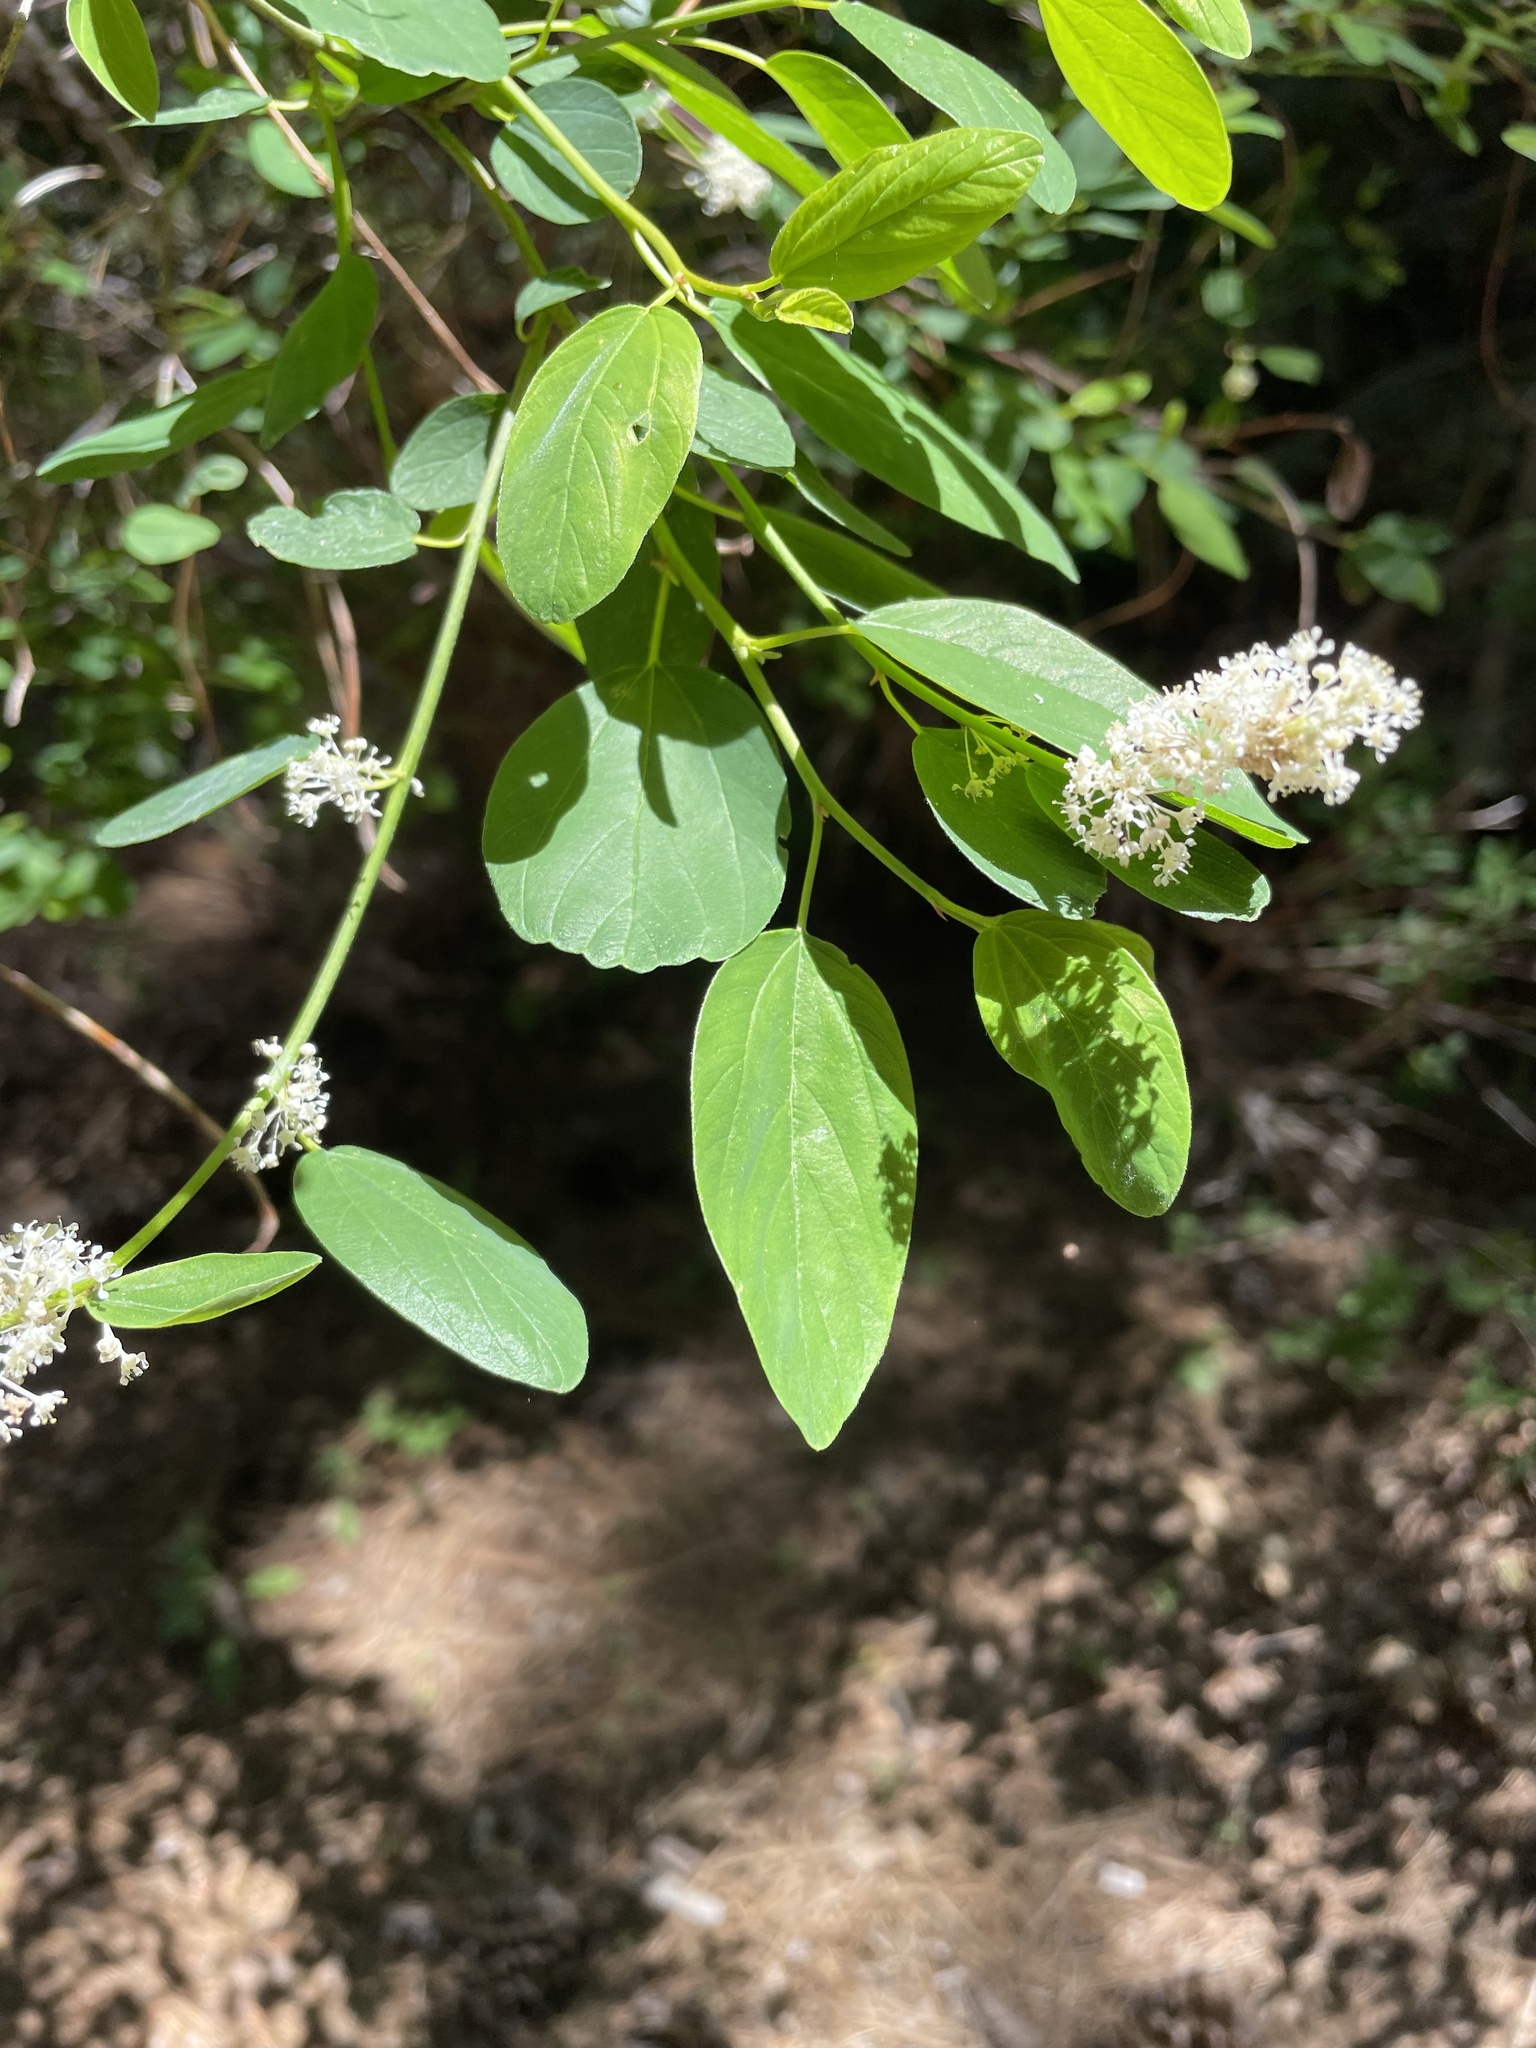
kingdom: Plantae
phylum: Tracheophyta
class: Magnoliopsida
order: Rosales
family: Rhamnaceae
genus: Ceanothus
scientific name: Ceanothus integerrimus
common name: Deerbrush ceanothus
